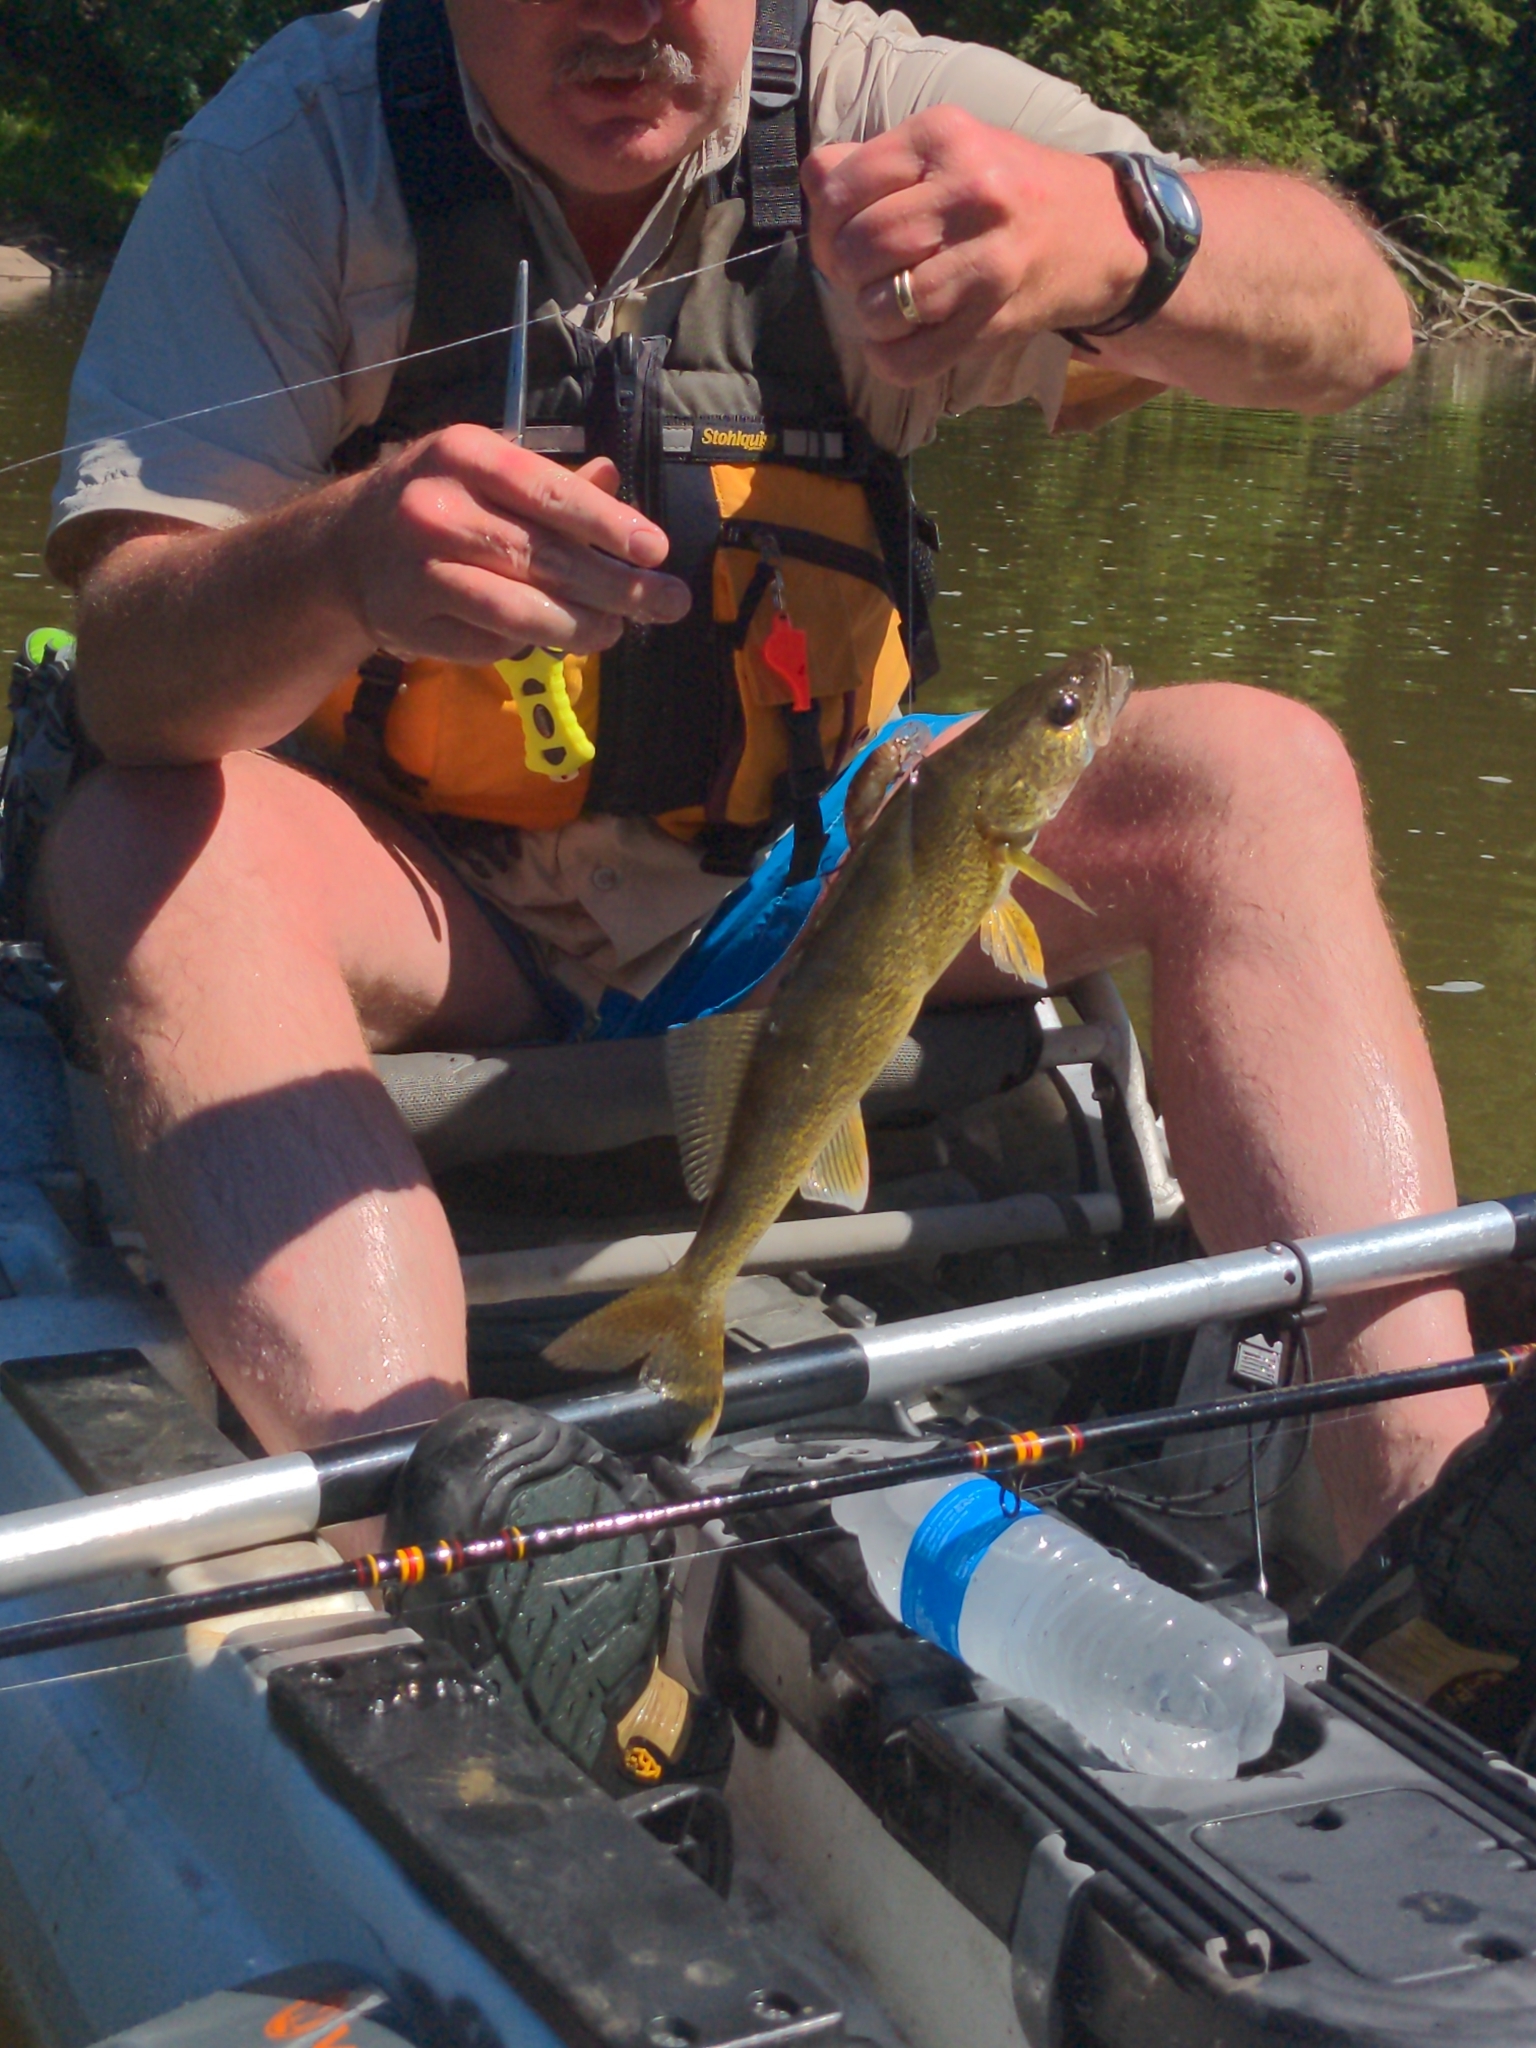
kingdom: Animalia
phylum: Chordata
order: Perciformes
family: Percidae
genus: Sander
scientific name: Sander vitreus
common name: Walleye
